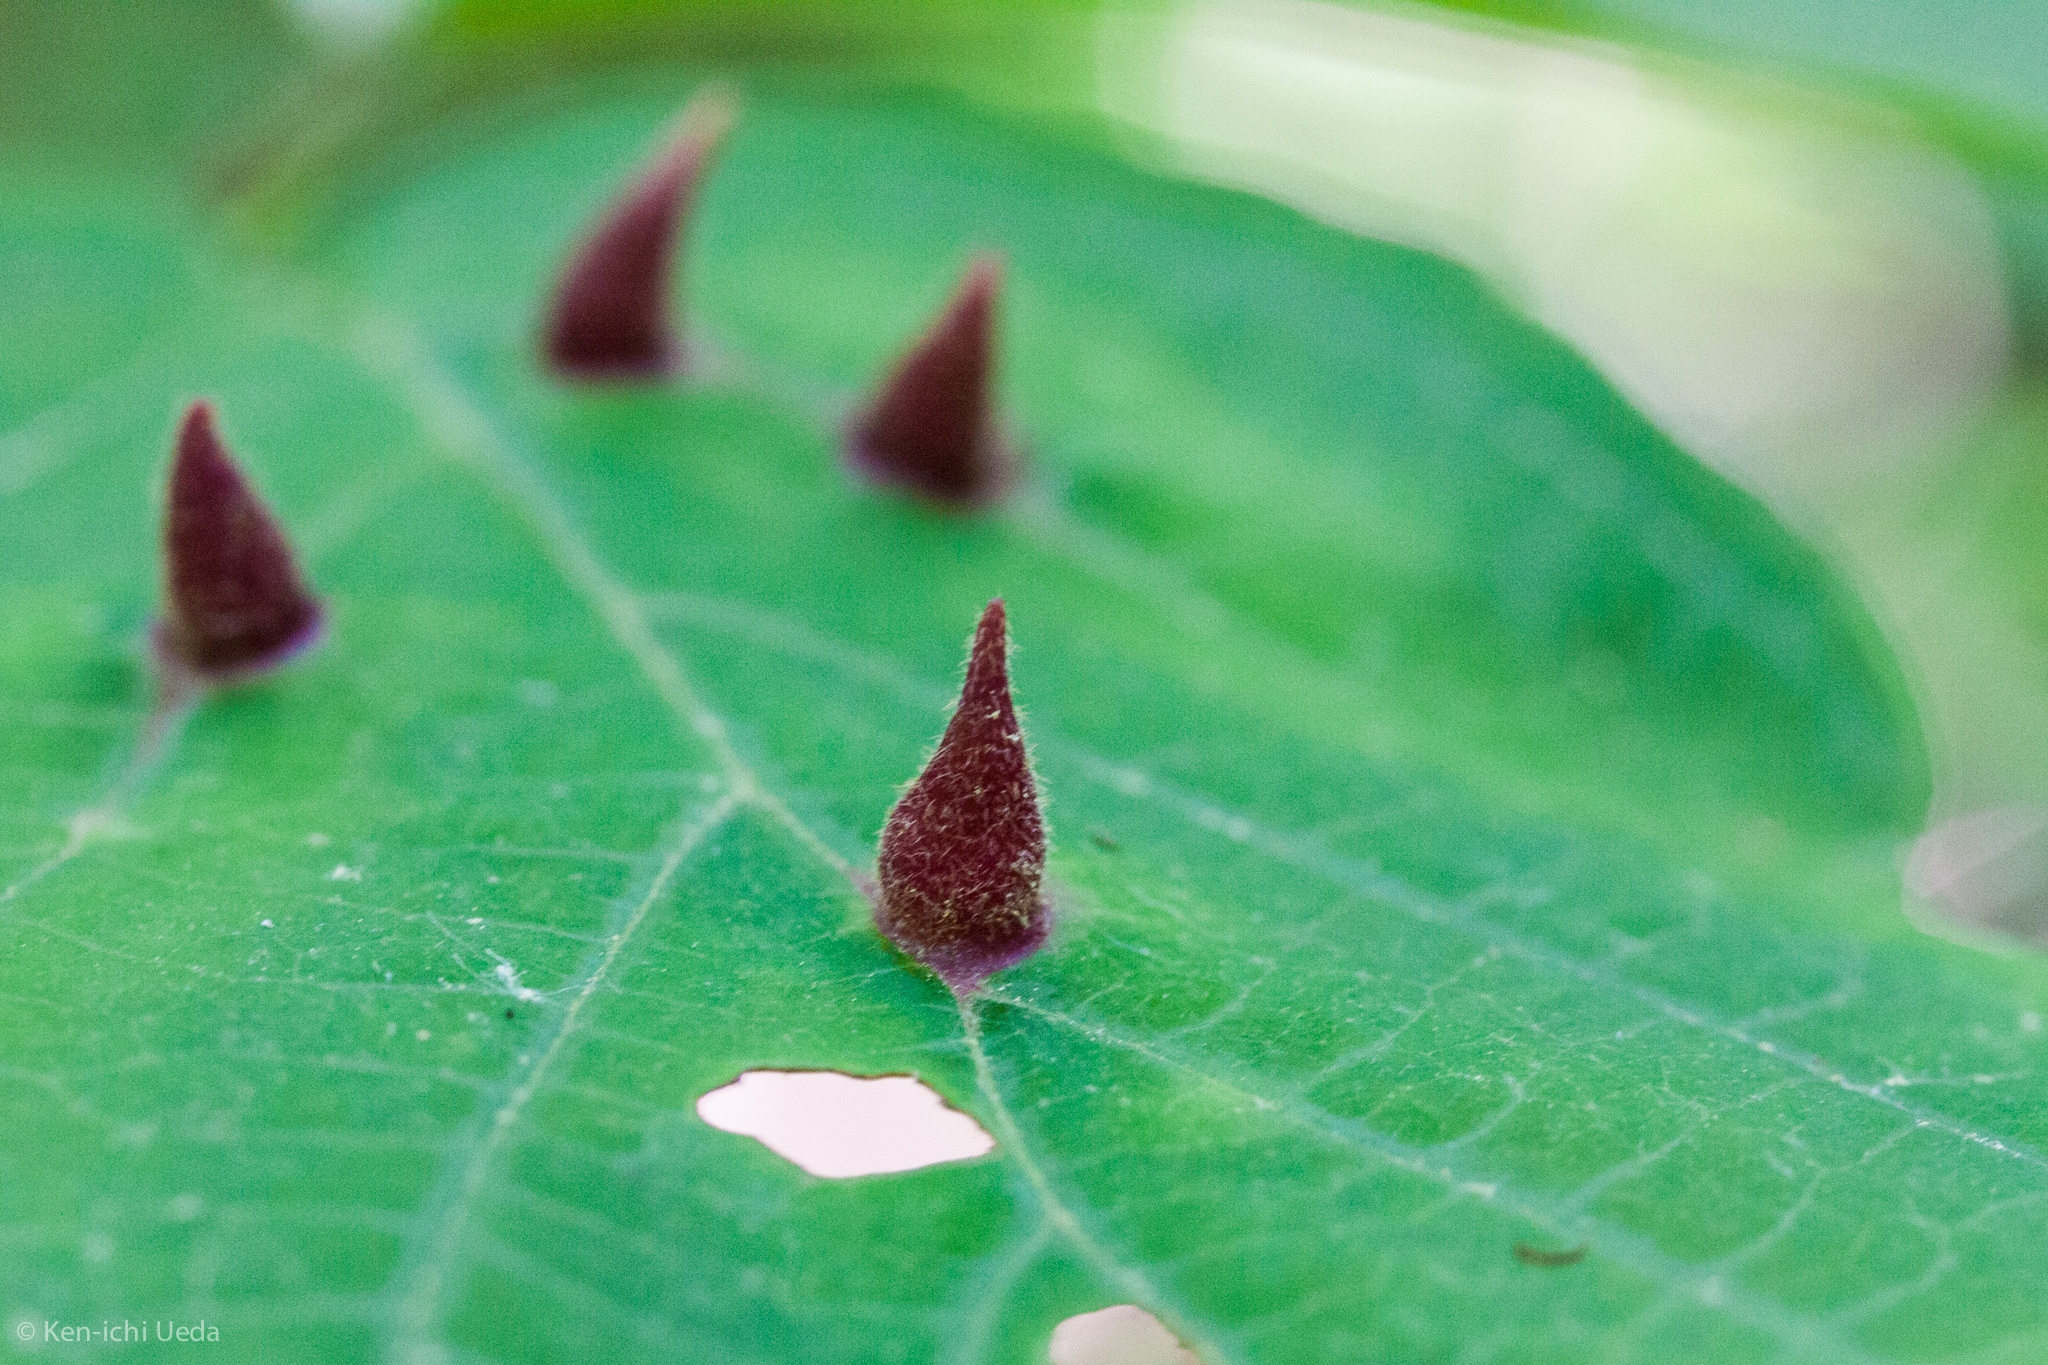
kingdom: Animalia
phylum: Arthropoda
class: Insecta
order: Hemiptera
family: Aphididae
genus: Hormaphis
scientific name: Hormaphis hamamelidis
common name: Witch-hazel cone gall aphid
